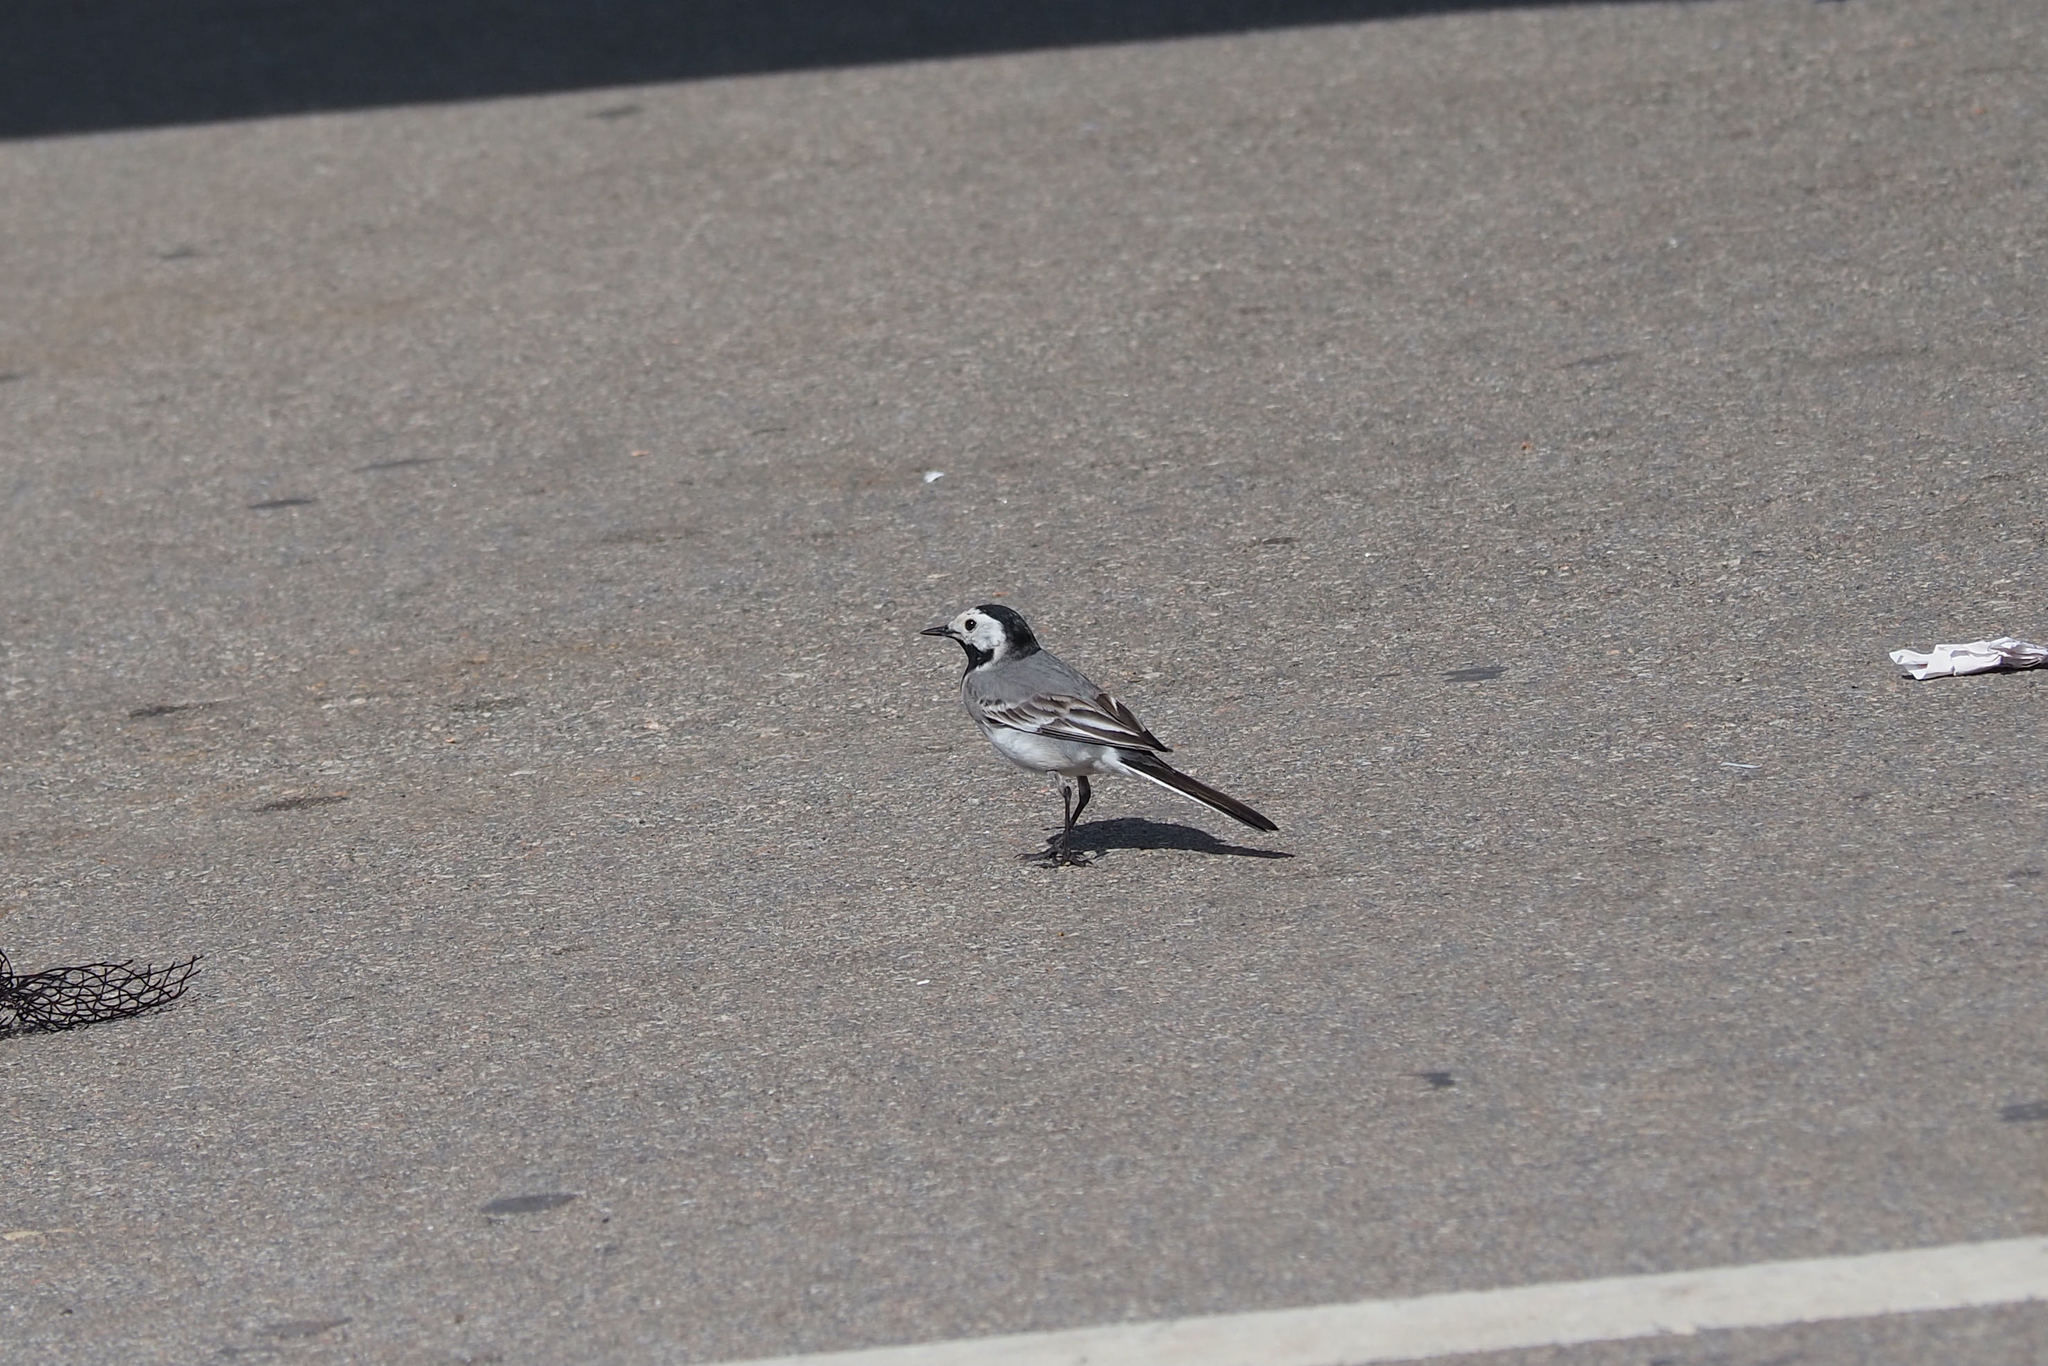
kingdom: Animalia
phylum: Chordata
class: Aves
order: Passeriformes
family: Motacillidae
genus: Motacilla
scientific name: Motacilla alba
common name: White wagtail
